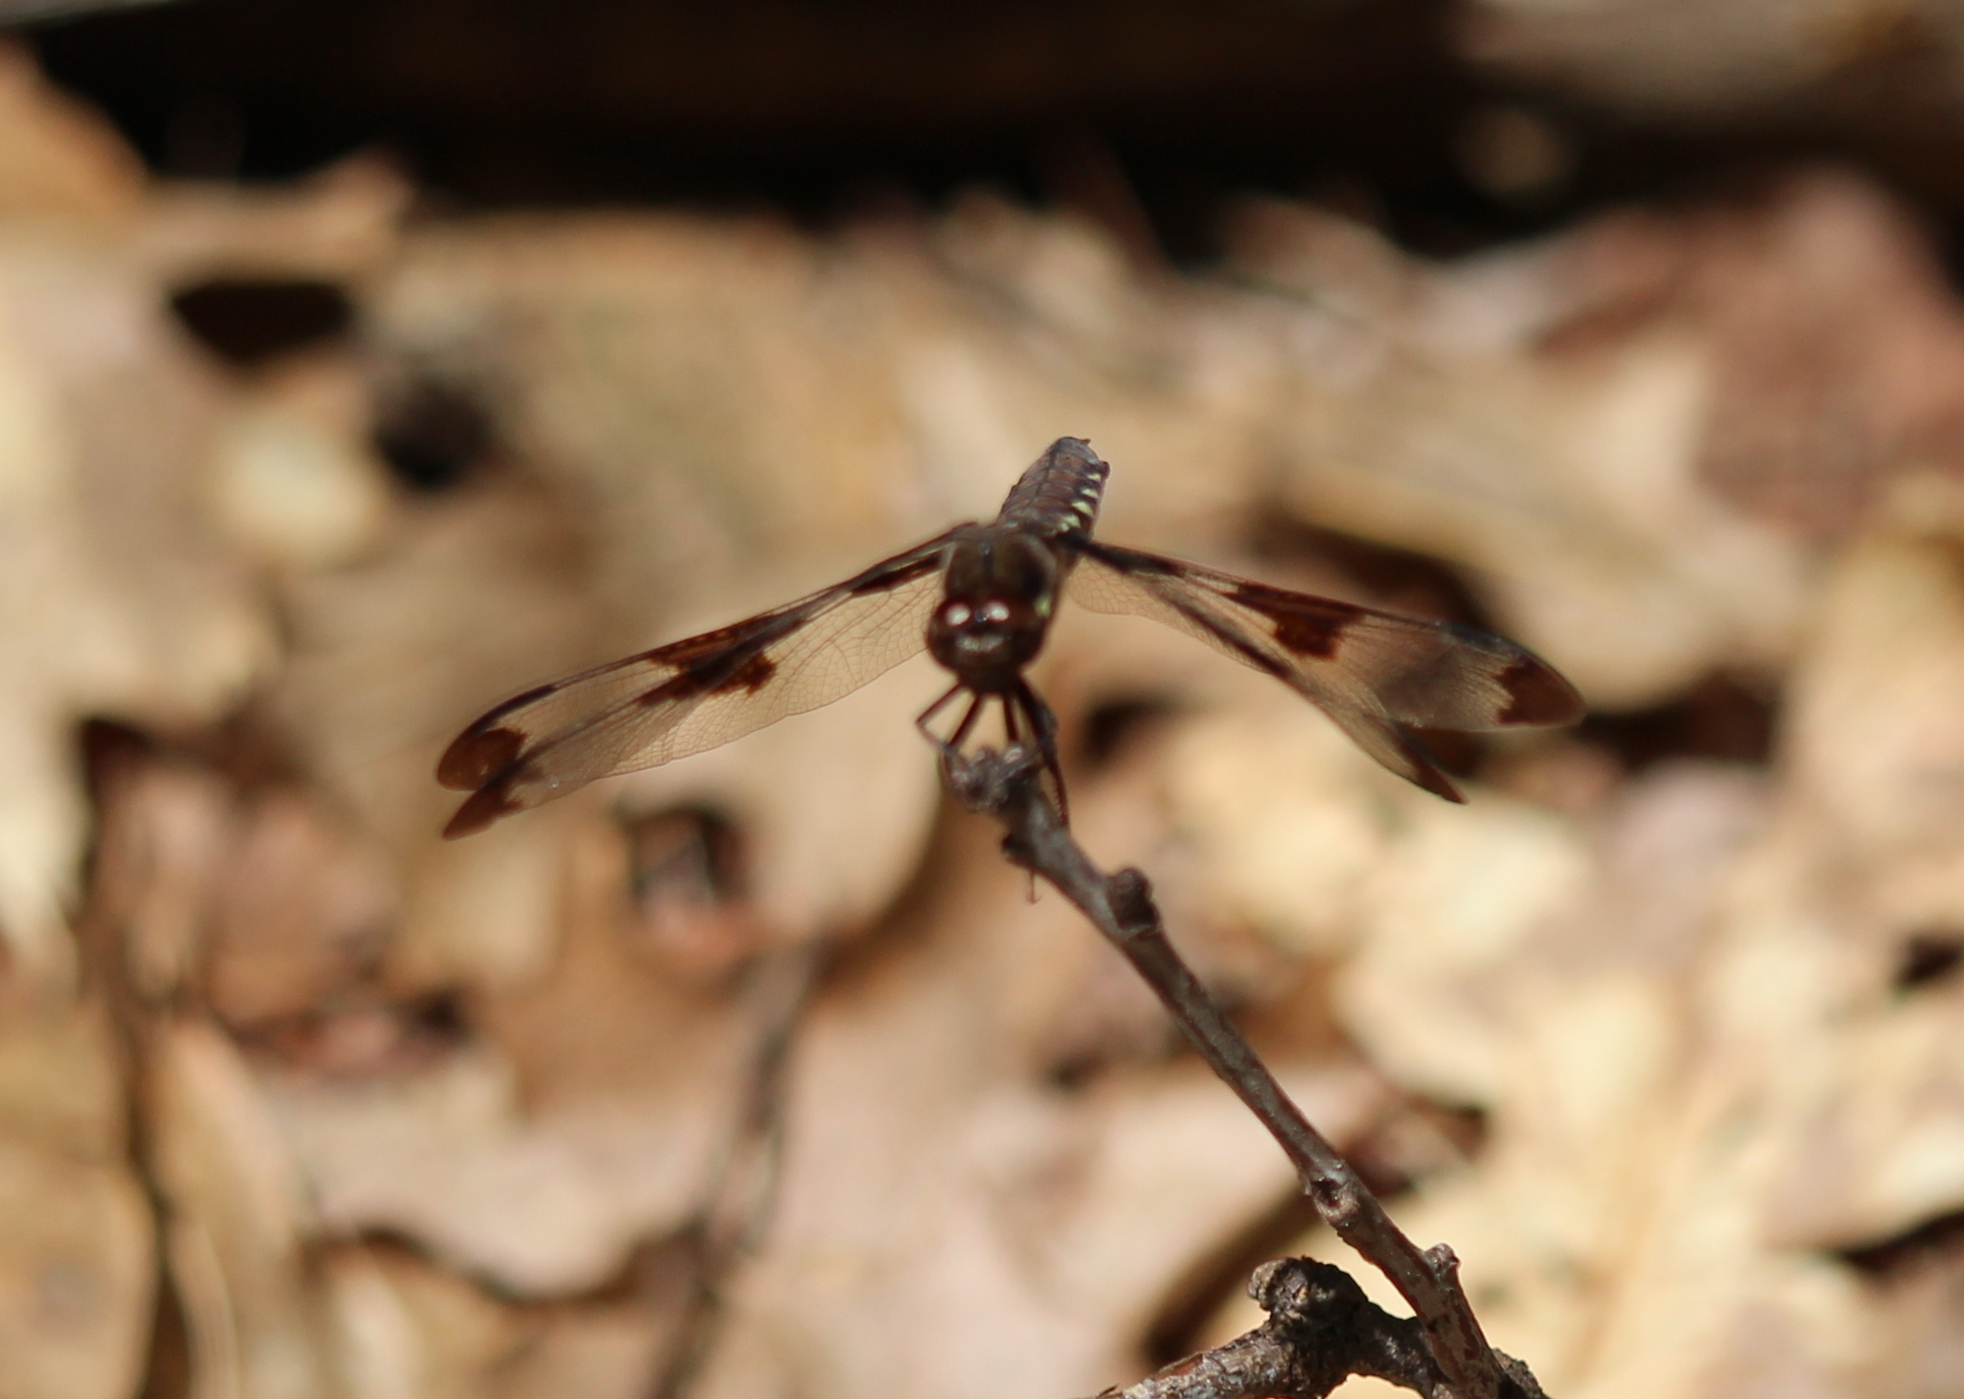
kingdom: Animalia
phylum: Arthropoda
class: Insecta
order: Odonata
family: Libellulidae
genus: Plathemis
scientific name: Plathemis lydia
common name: Common whitetail
